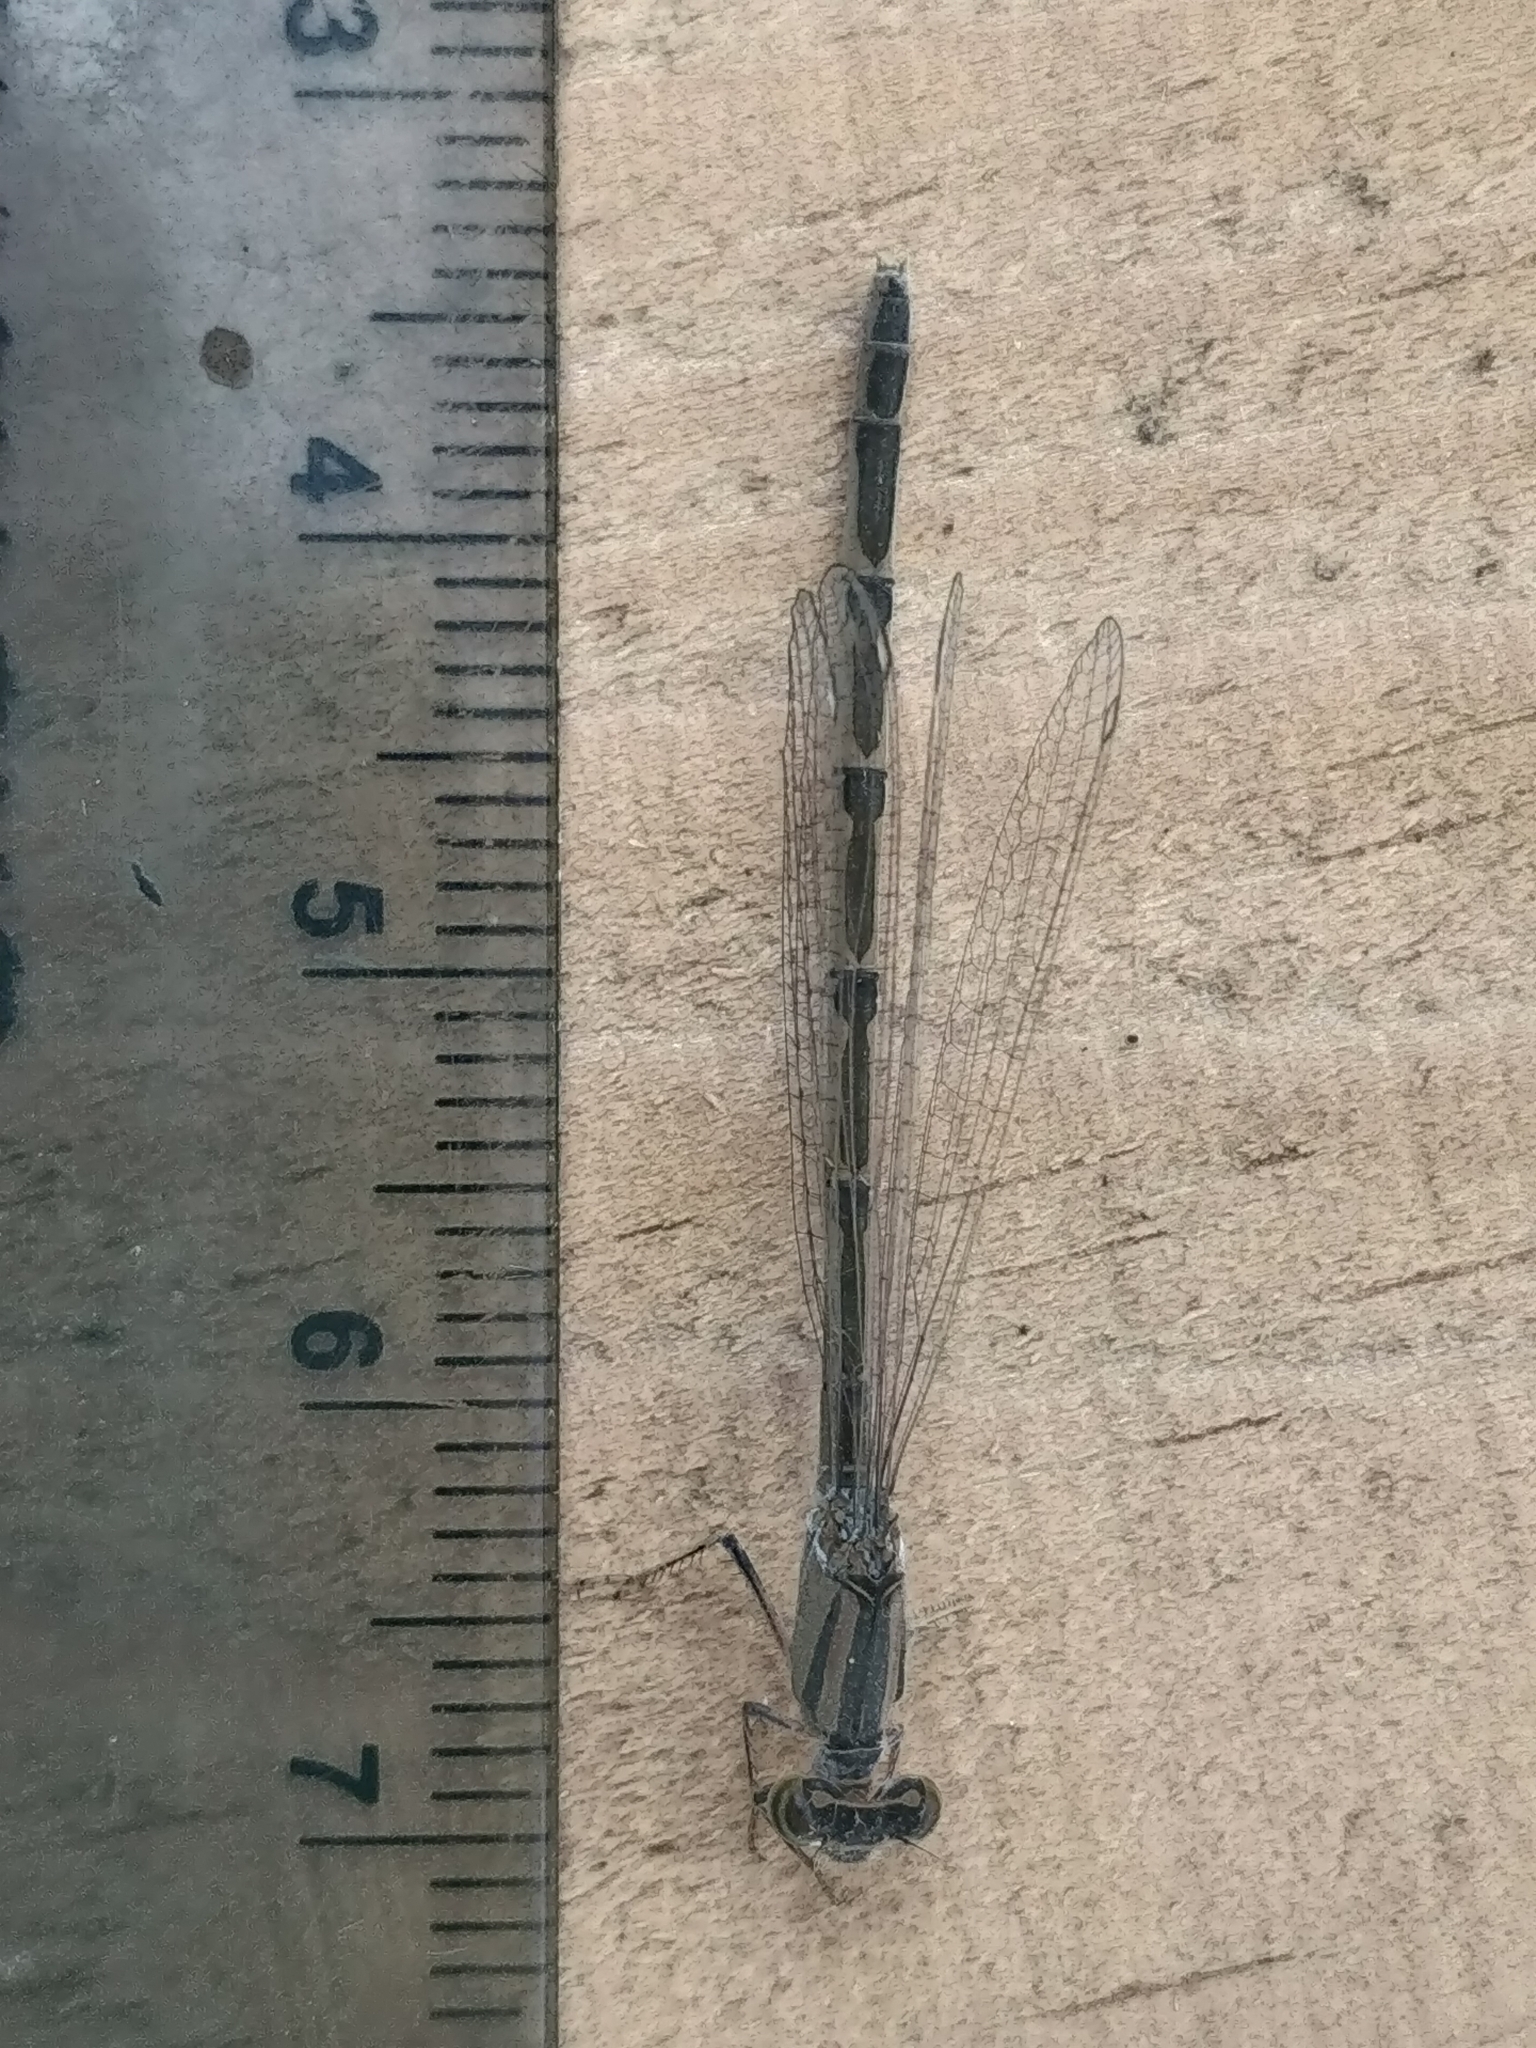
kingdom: Animalia
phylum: Arthropoda
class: Insecta
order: Odonata
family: Coenagrionidae
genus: Ischnura
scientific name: Ischnura verticalis
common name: Eastern forktail
